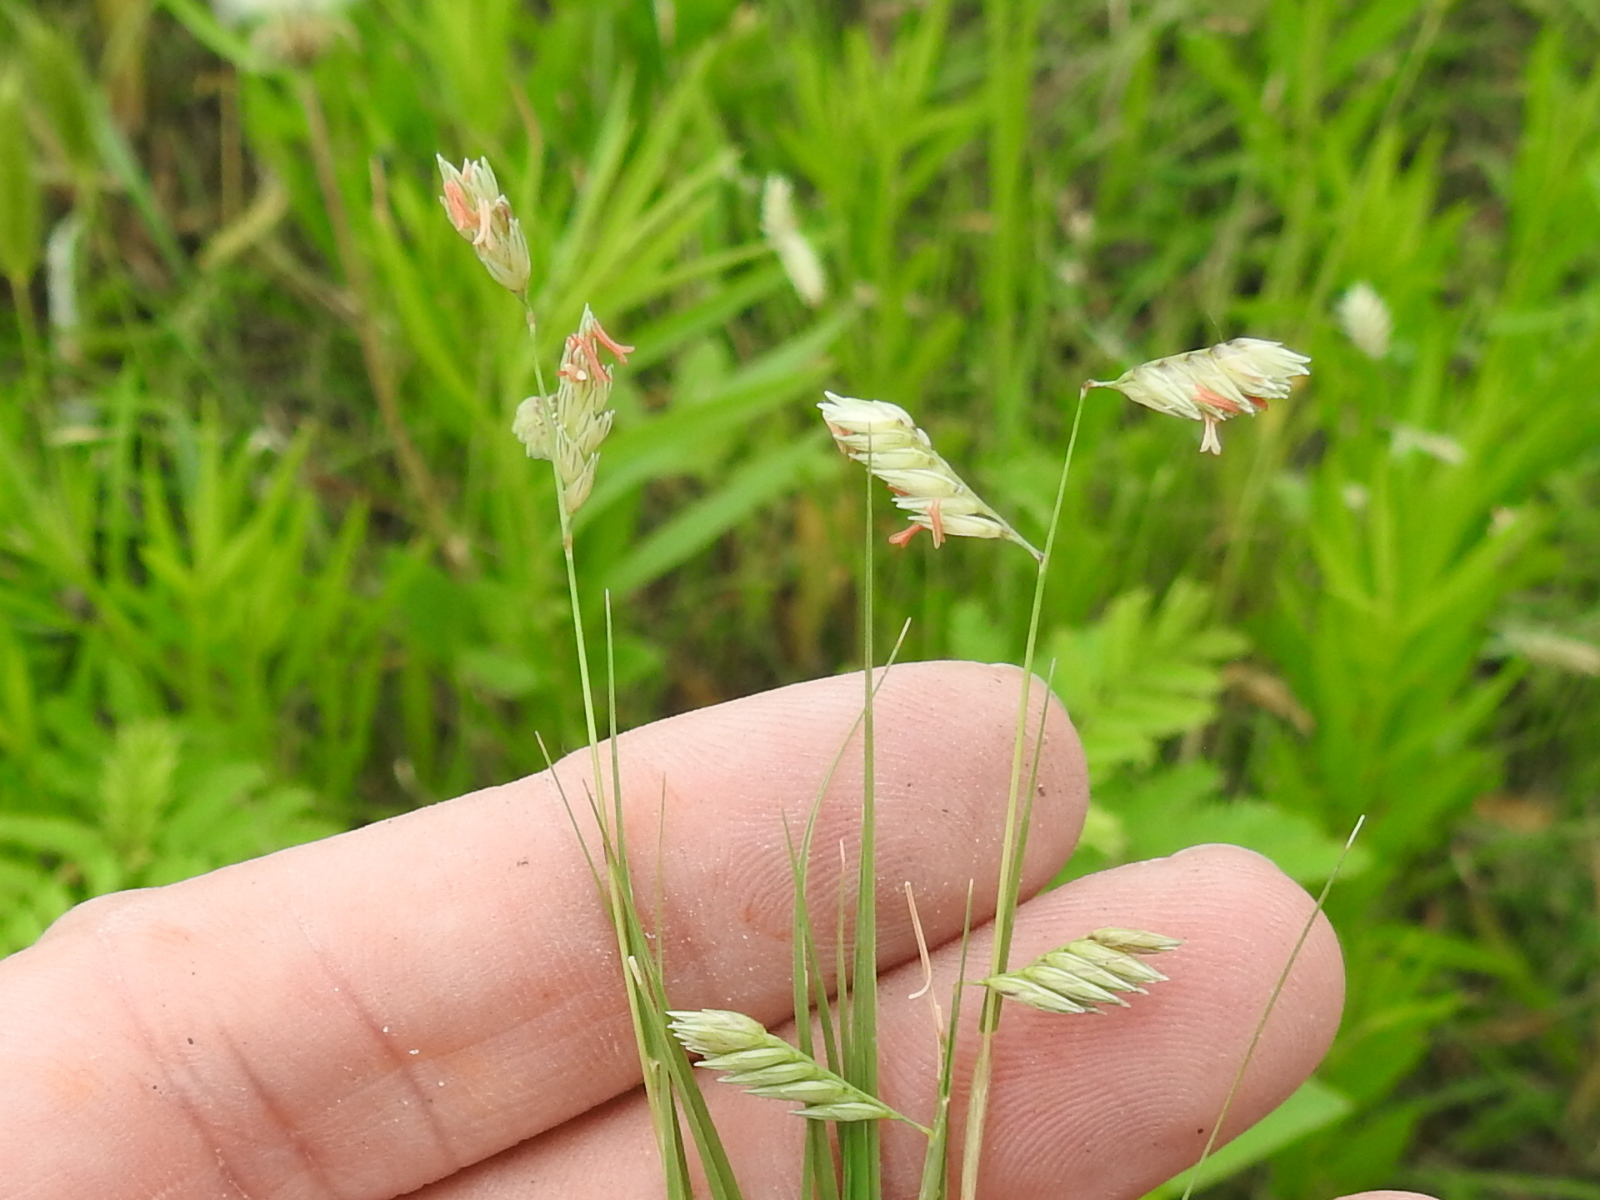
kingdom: Plantae
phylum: Tracheophyta
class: Liliopsida
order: Poales
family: Poaceae
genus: Bouteloua
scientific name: Bouteloua dactyloides
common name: Buffalo grass
